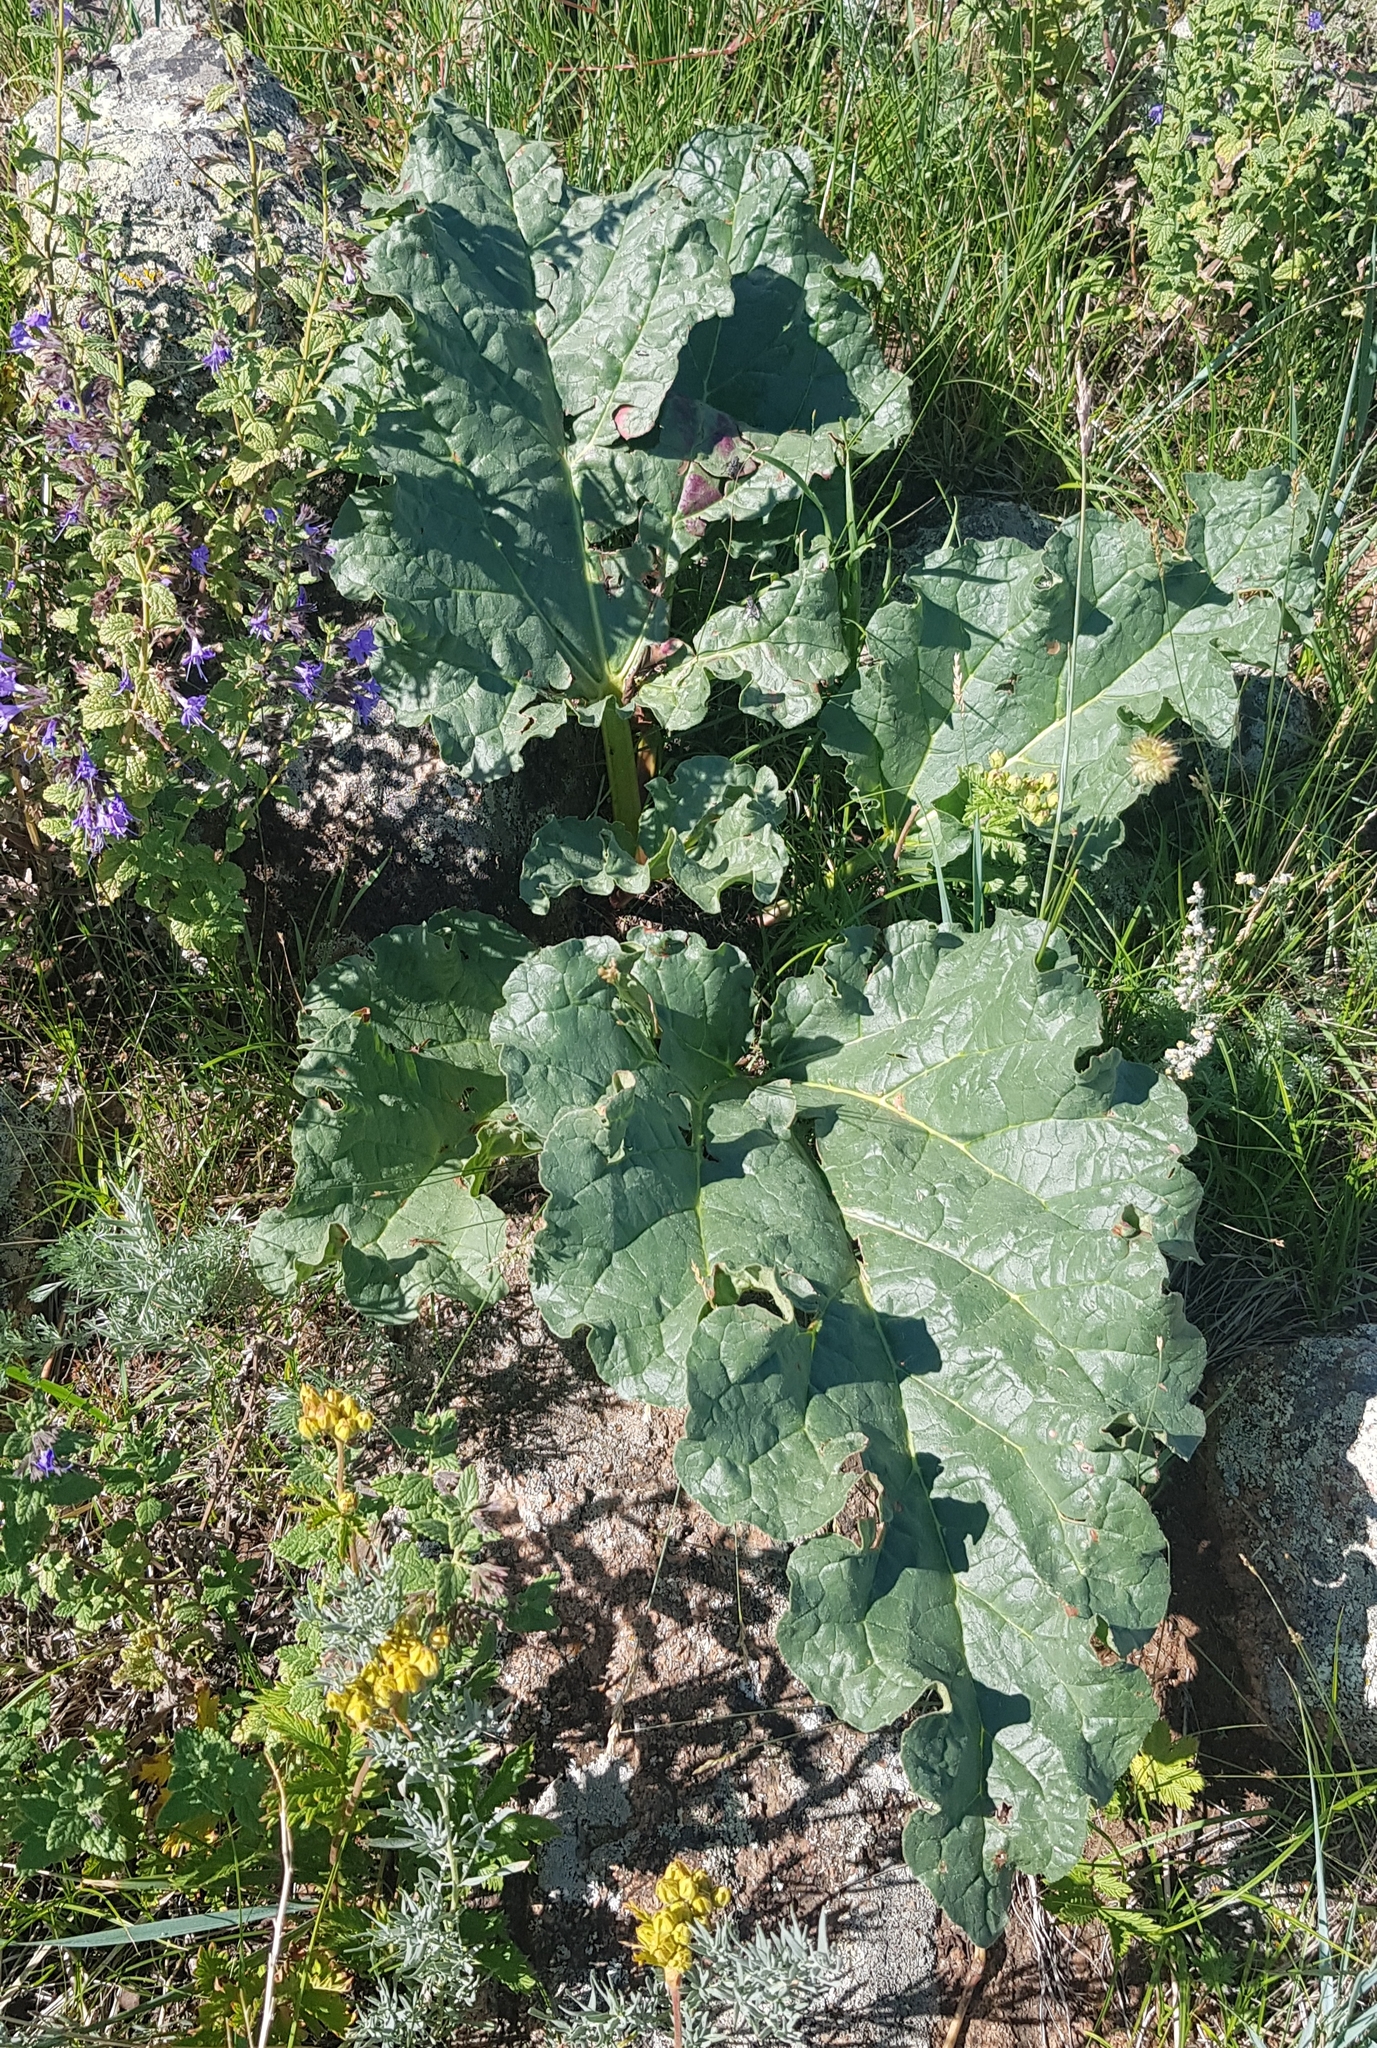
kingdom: Plantae
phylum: Tracheophyta
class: Magnoliopsida
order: Caryophyllales
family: Polygonaceae
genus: Rheum
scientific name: Rheum rhabarbarum
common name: Garden rhubarb
